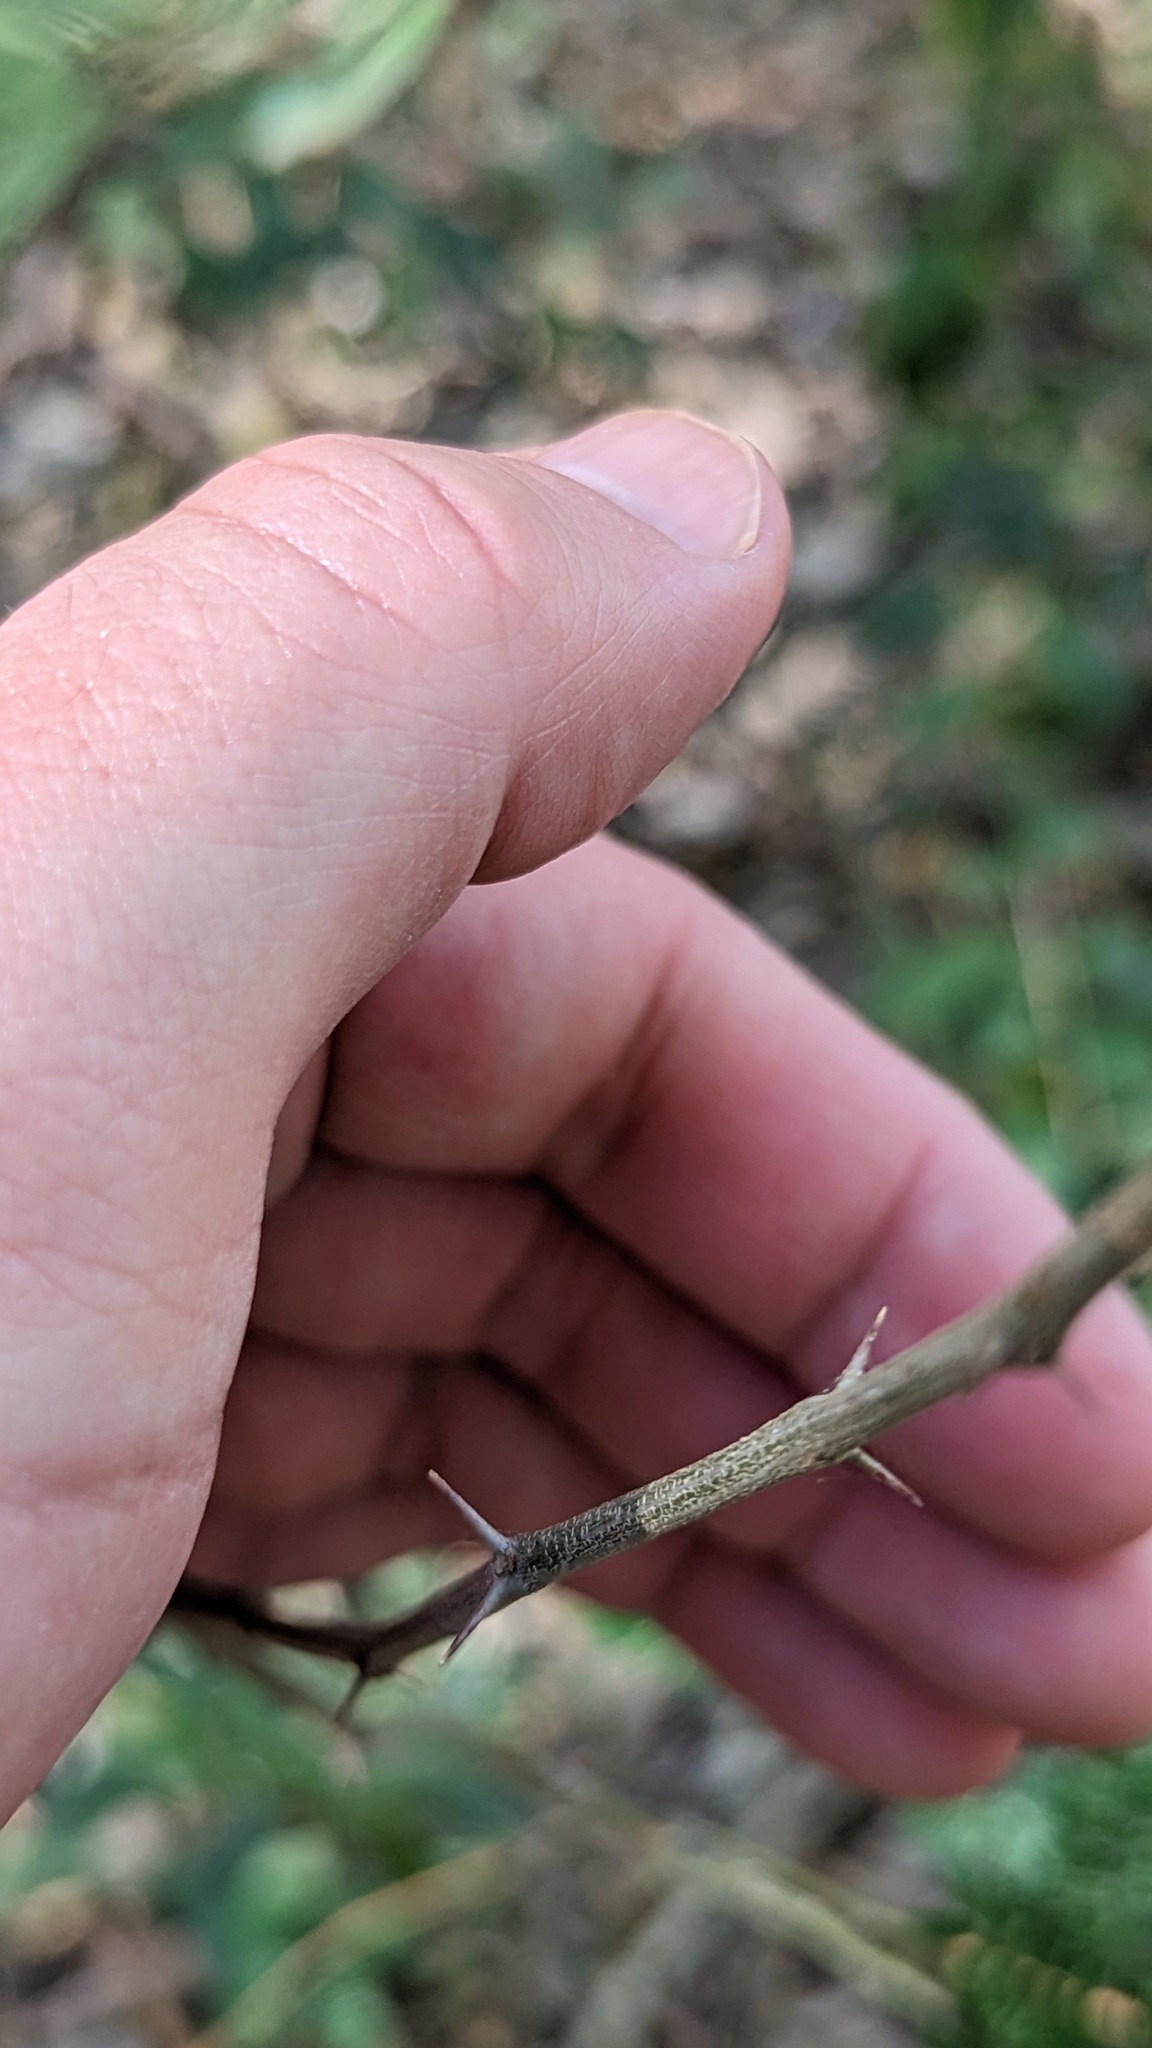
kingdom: Plantae
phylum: Tracheophyta
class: Magnoliopsida
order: Fabales
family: Fabaceae
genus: Havardia
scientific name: Havardia pallens
